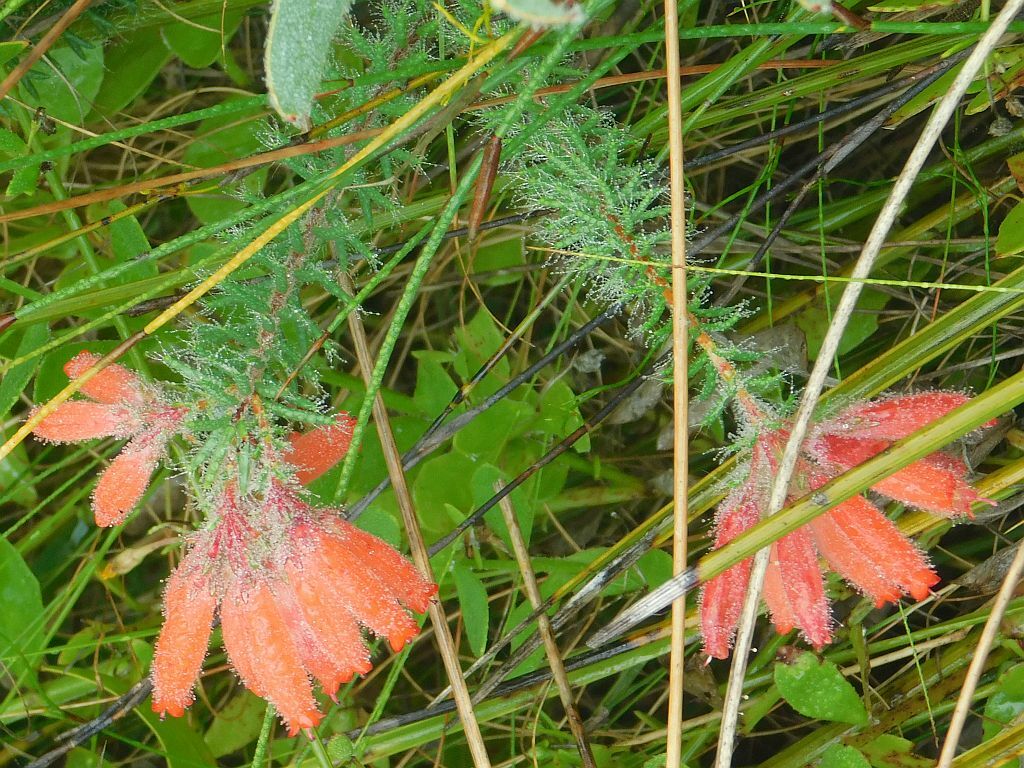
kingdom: Plantae
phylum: Tracheophyta
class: Magnoliopsida
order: Ericales
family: Ericaceae
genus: Erica
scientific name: Erica cerinthoides
